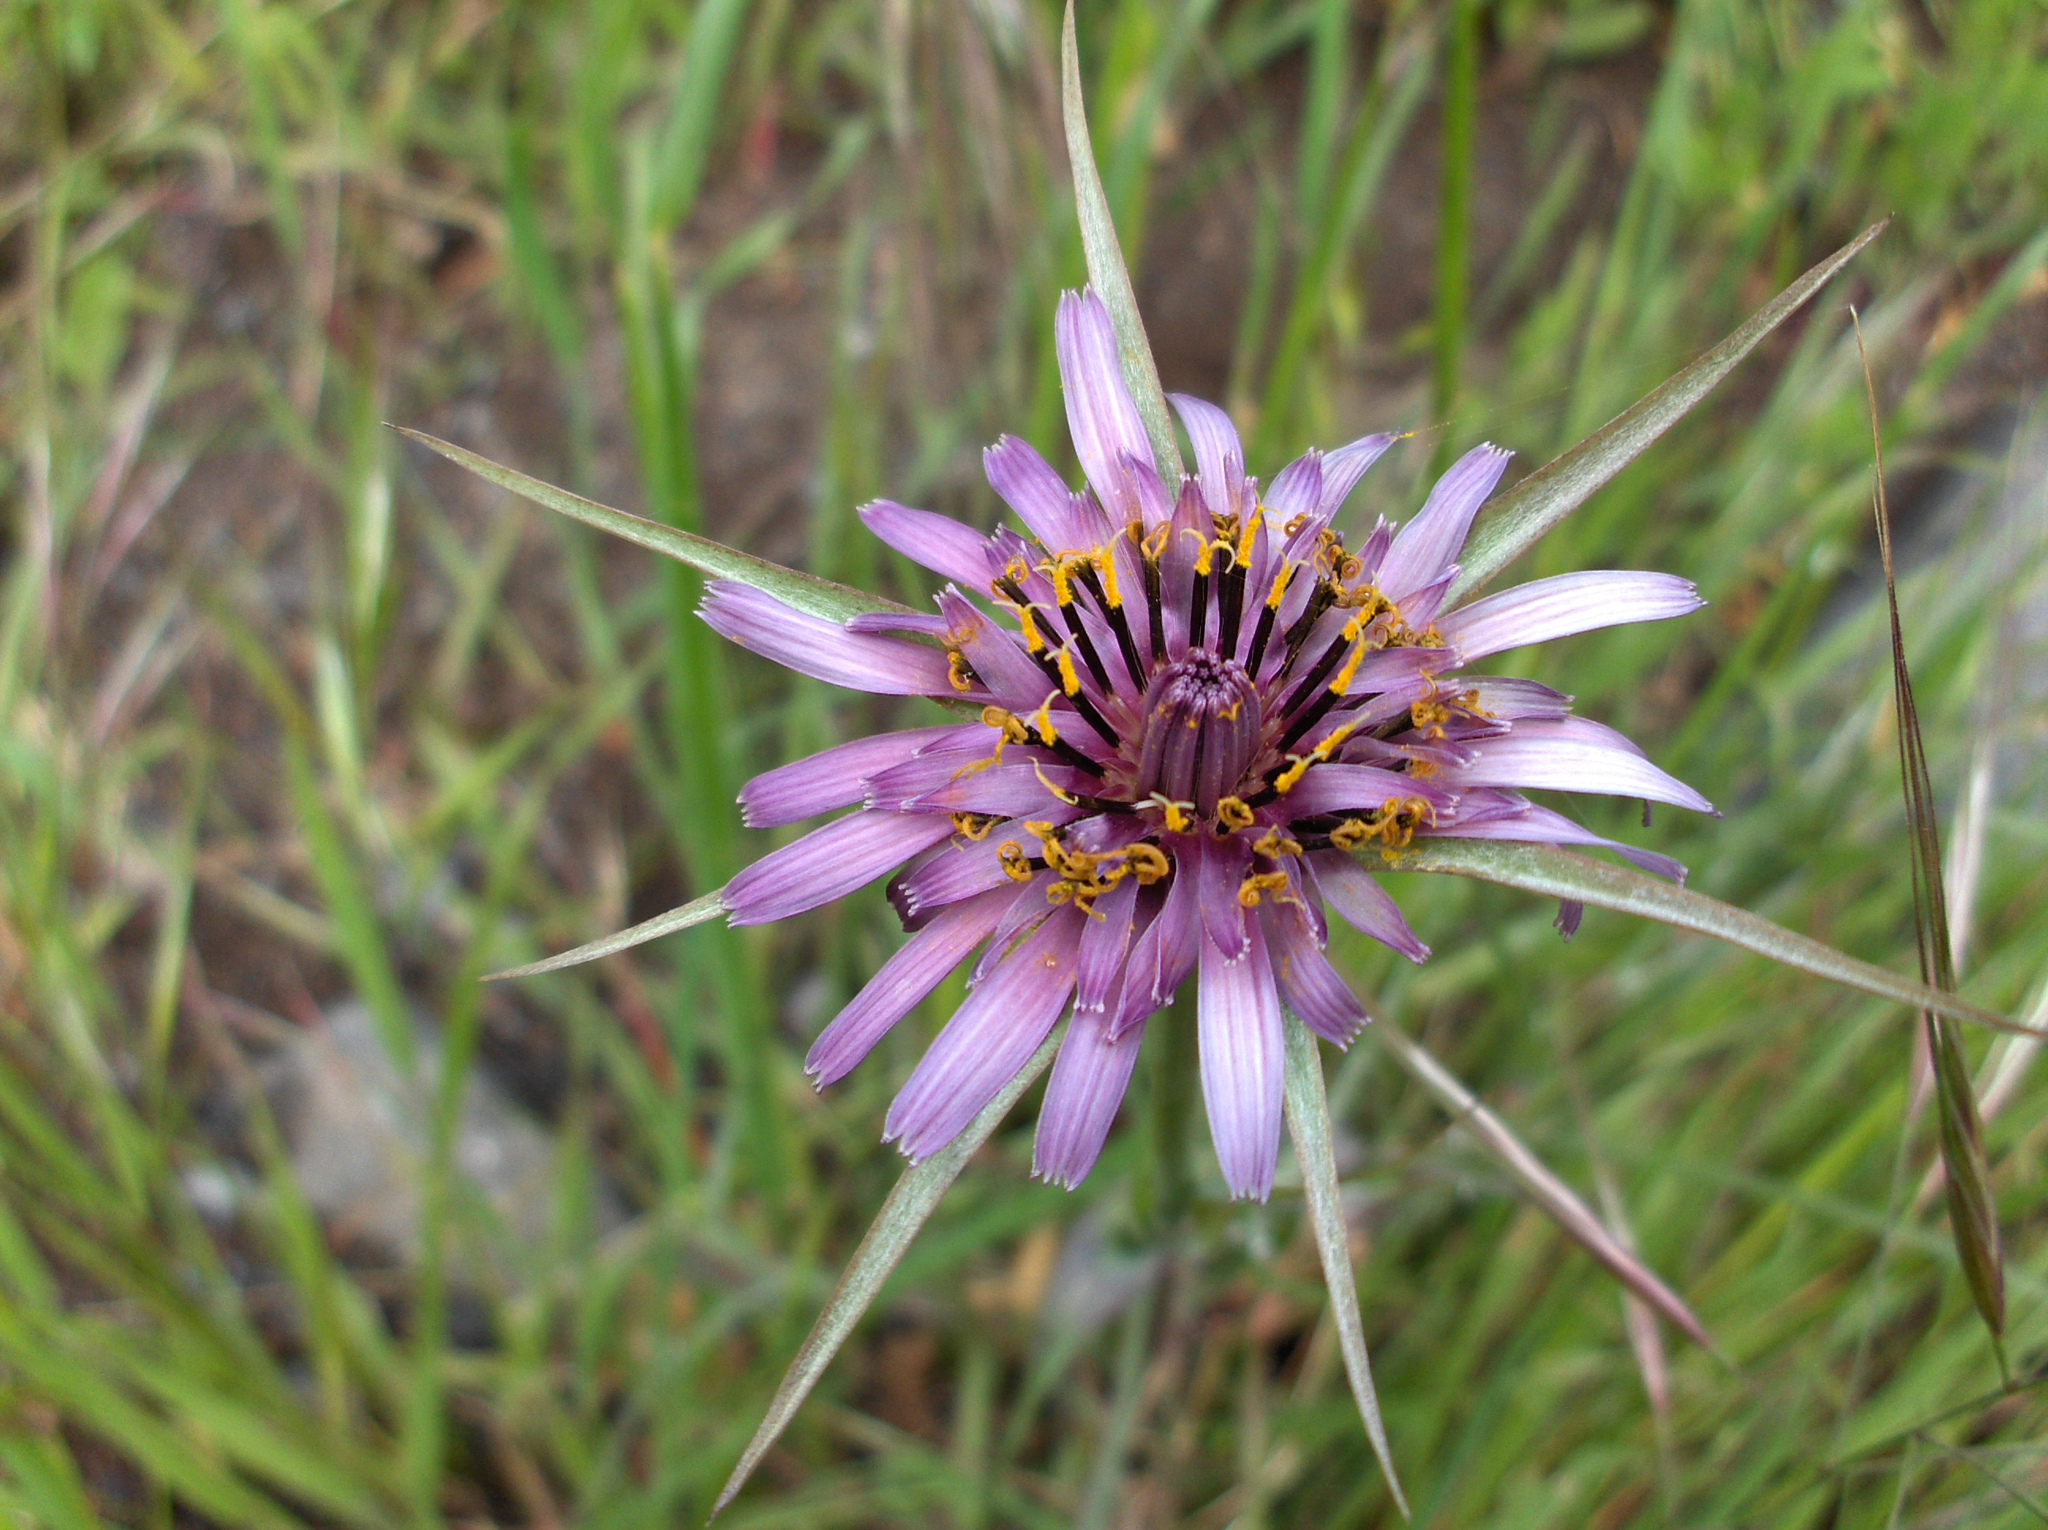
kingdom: Plantae
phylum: Tracheophyta
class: Magnoliopsida
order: Asterales
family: Asteraceae
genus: Tragopogon
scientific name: Tragopogon porrifolius
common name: Salsify
